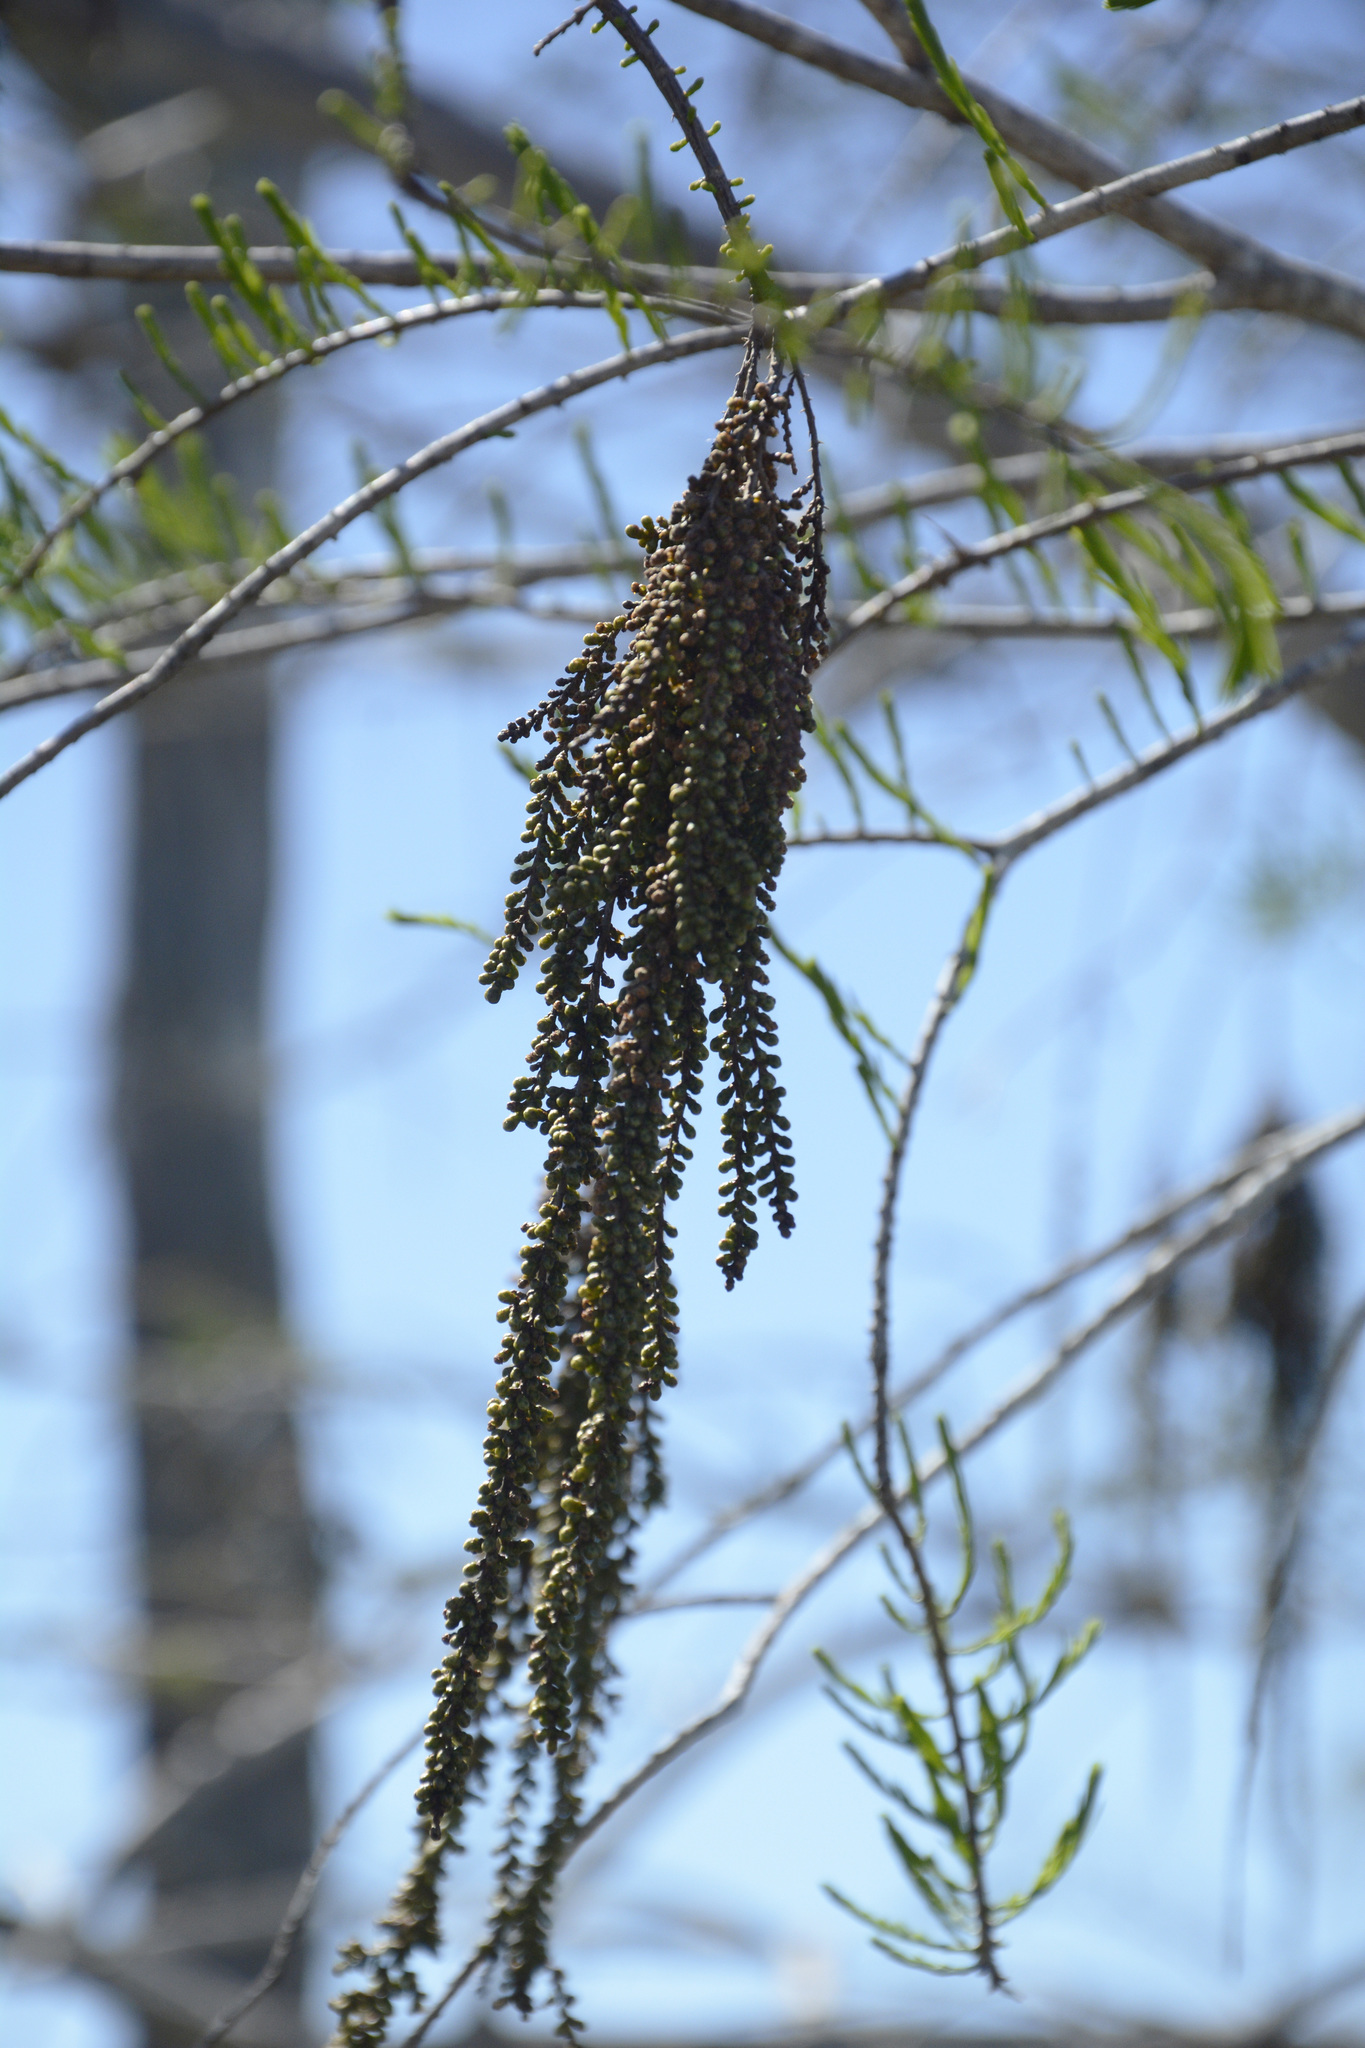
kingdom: Plantae
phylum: Tracheophyta
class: Pinopsida
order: Pinales
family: Cupressaceae
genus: Taxodium
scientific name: Taxodium distichum
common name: Bald cypress
